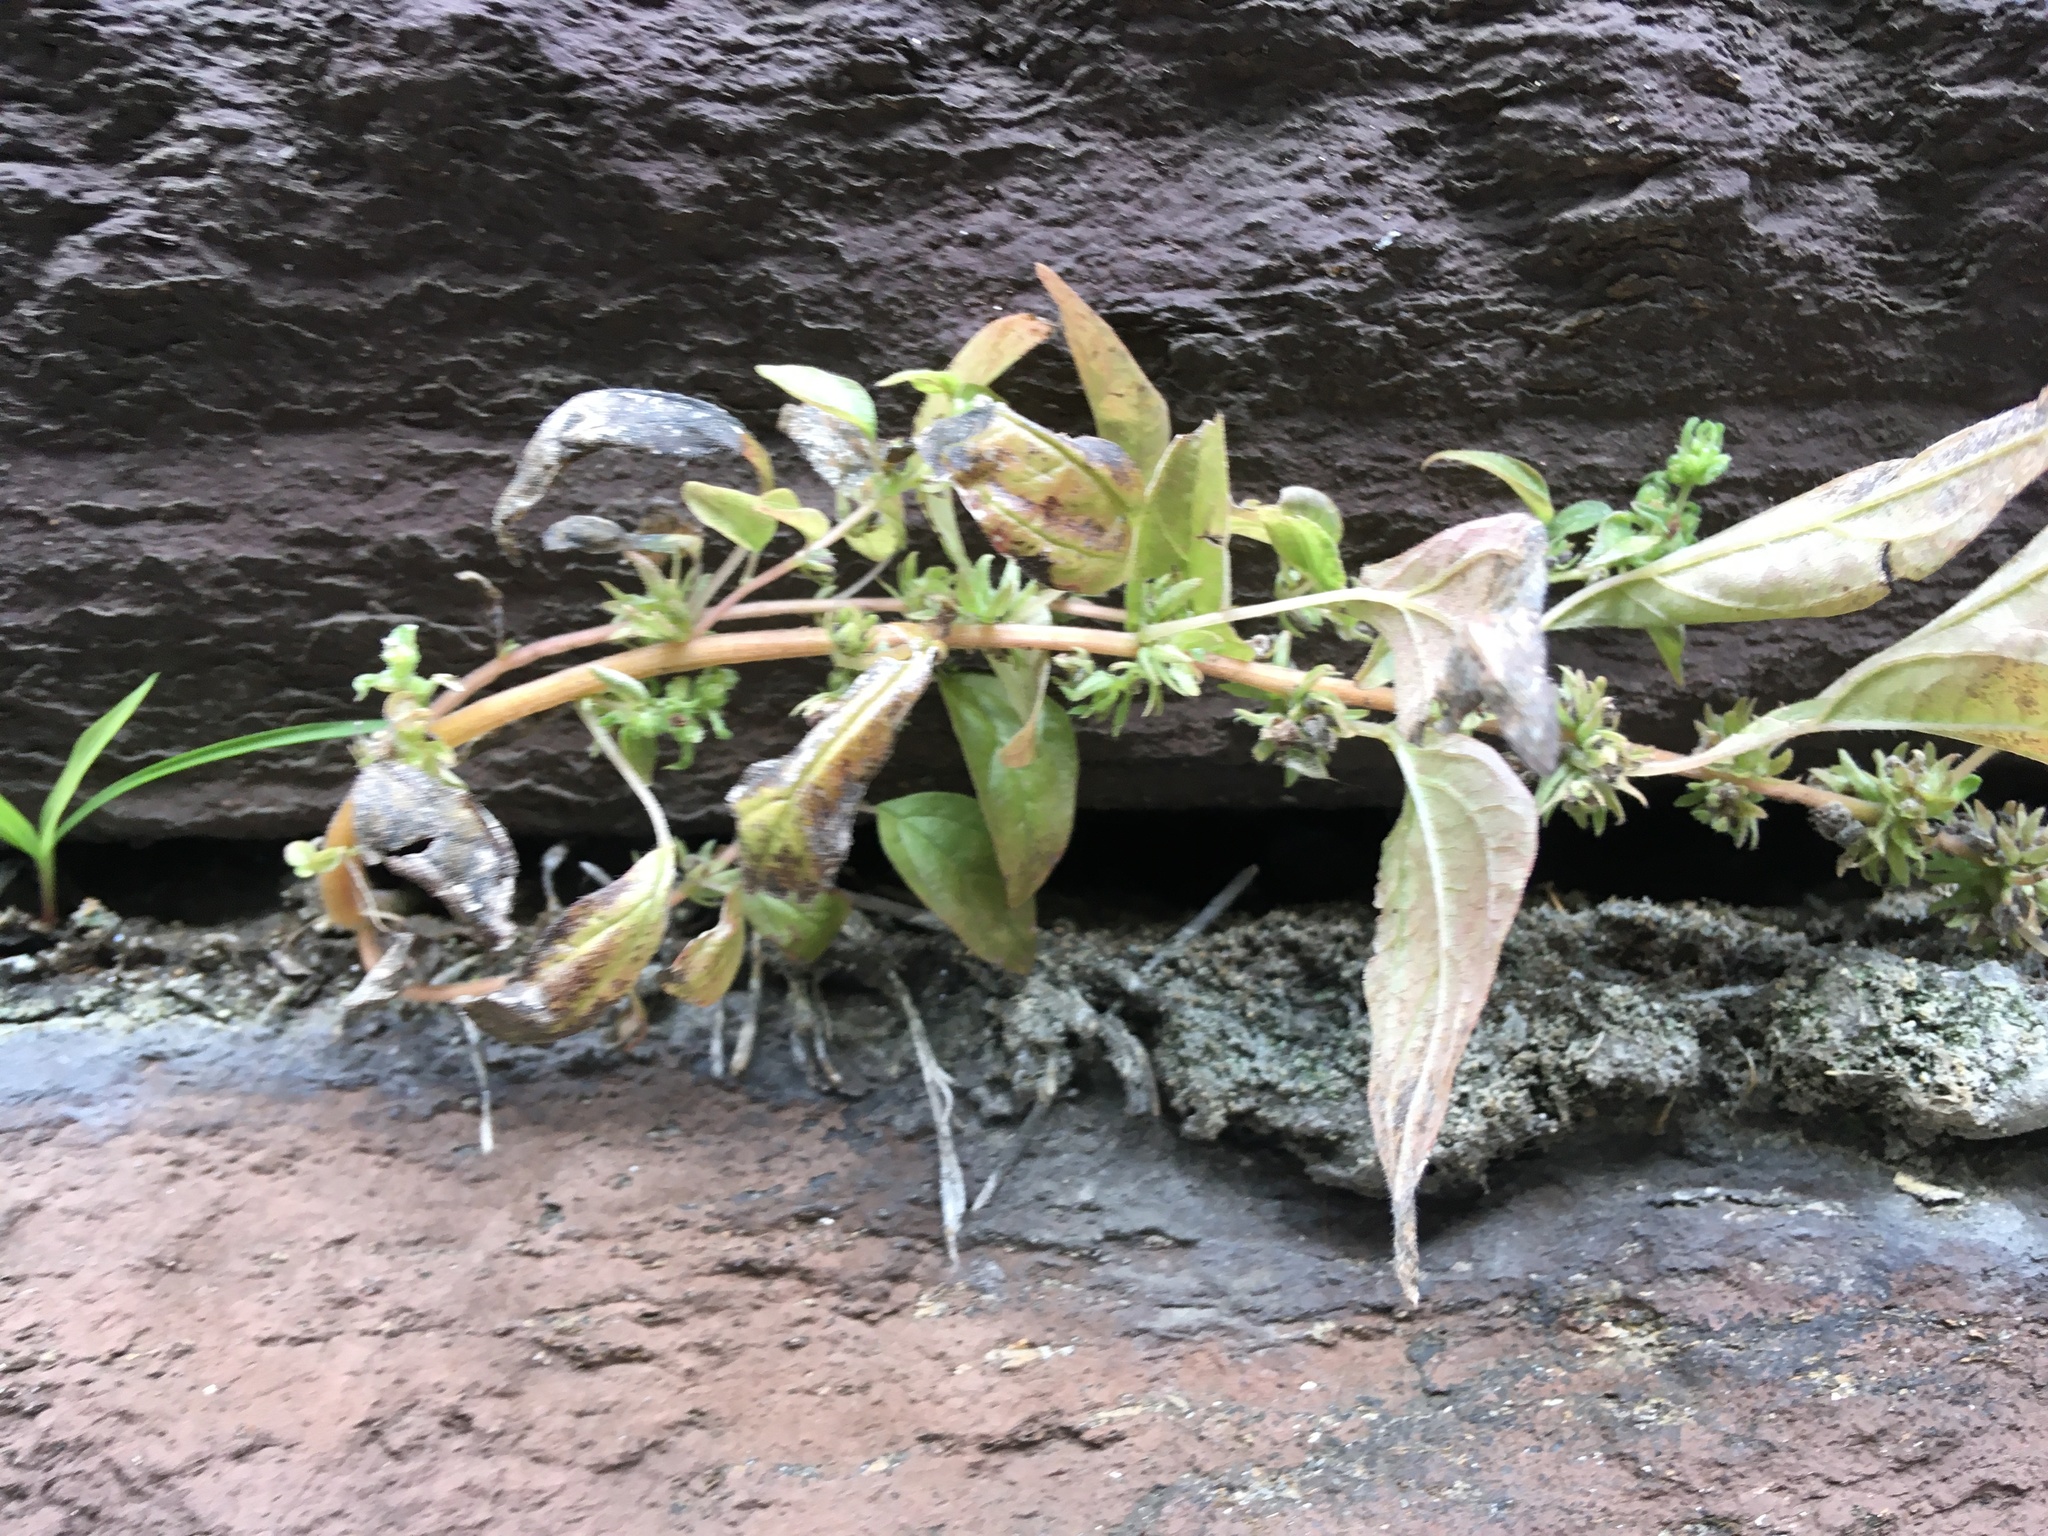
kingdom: Plantae
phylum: Tracheophyta
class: Magnoliopsida
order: Rosales
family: Urticaceae
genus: Parietaria
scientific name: Parietaria pensylvanica
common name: Pennsylvania pellitory
